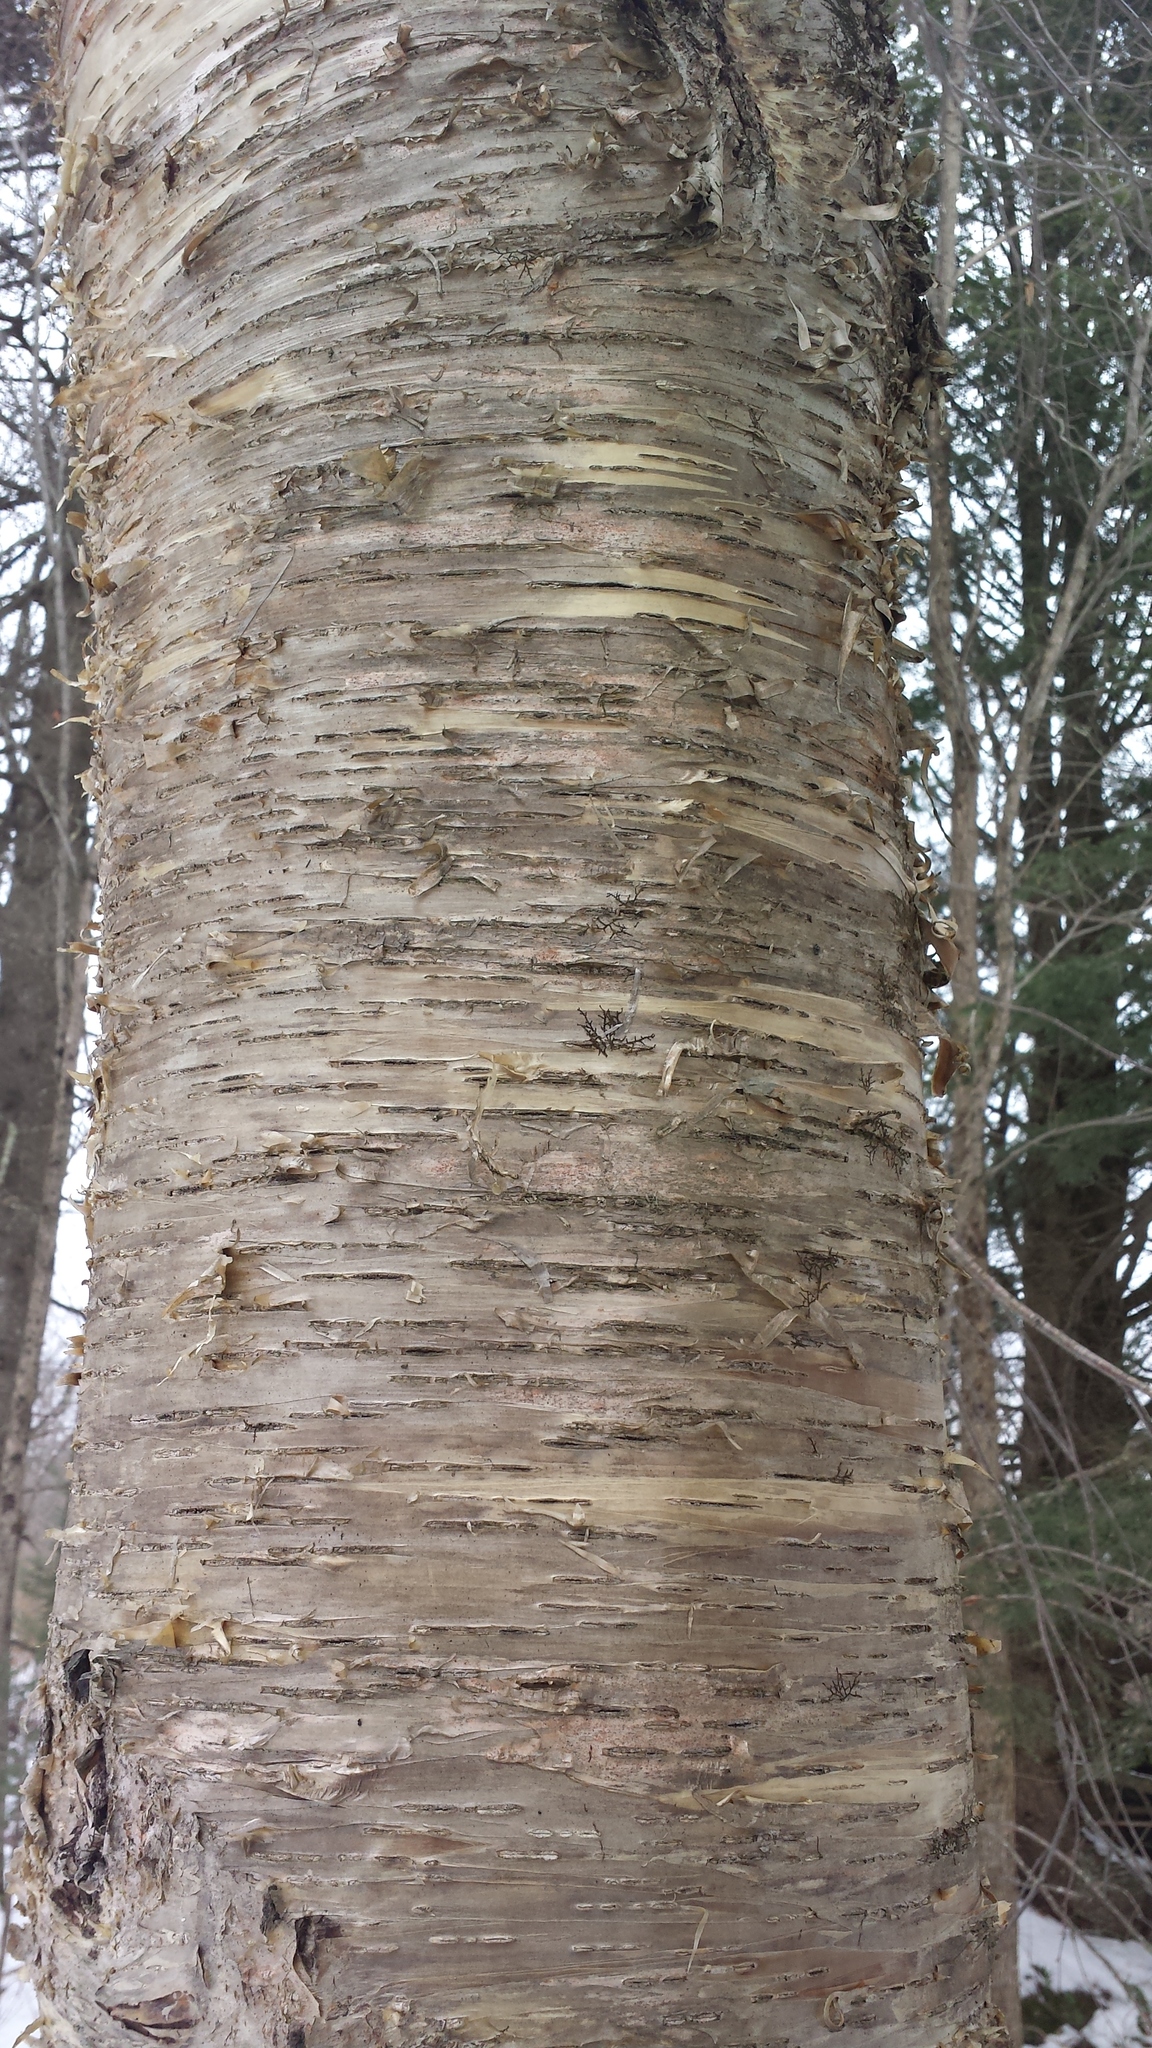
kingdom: Plantae
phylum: Tracheophyta
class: Magnoliopsida
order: Fagales
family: Betulaceae
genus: Betula
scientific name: Betula alleghaniensis
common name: Yellow birch
